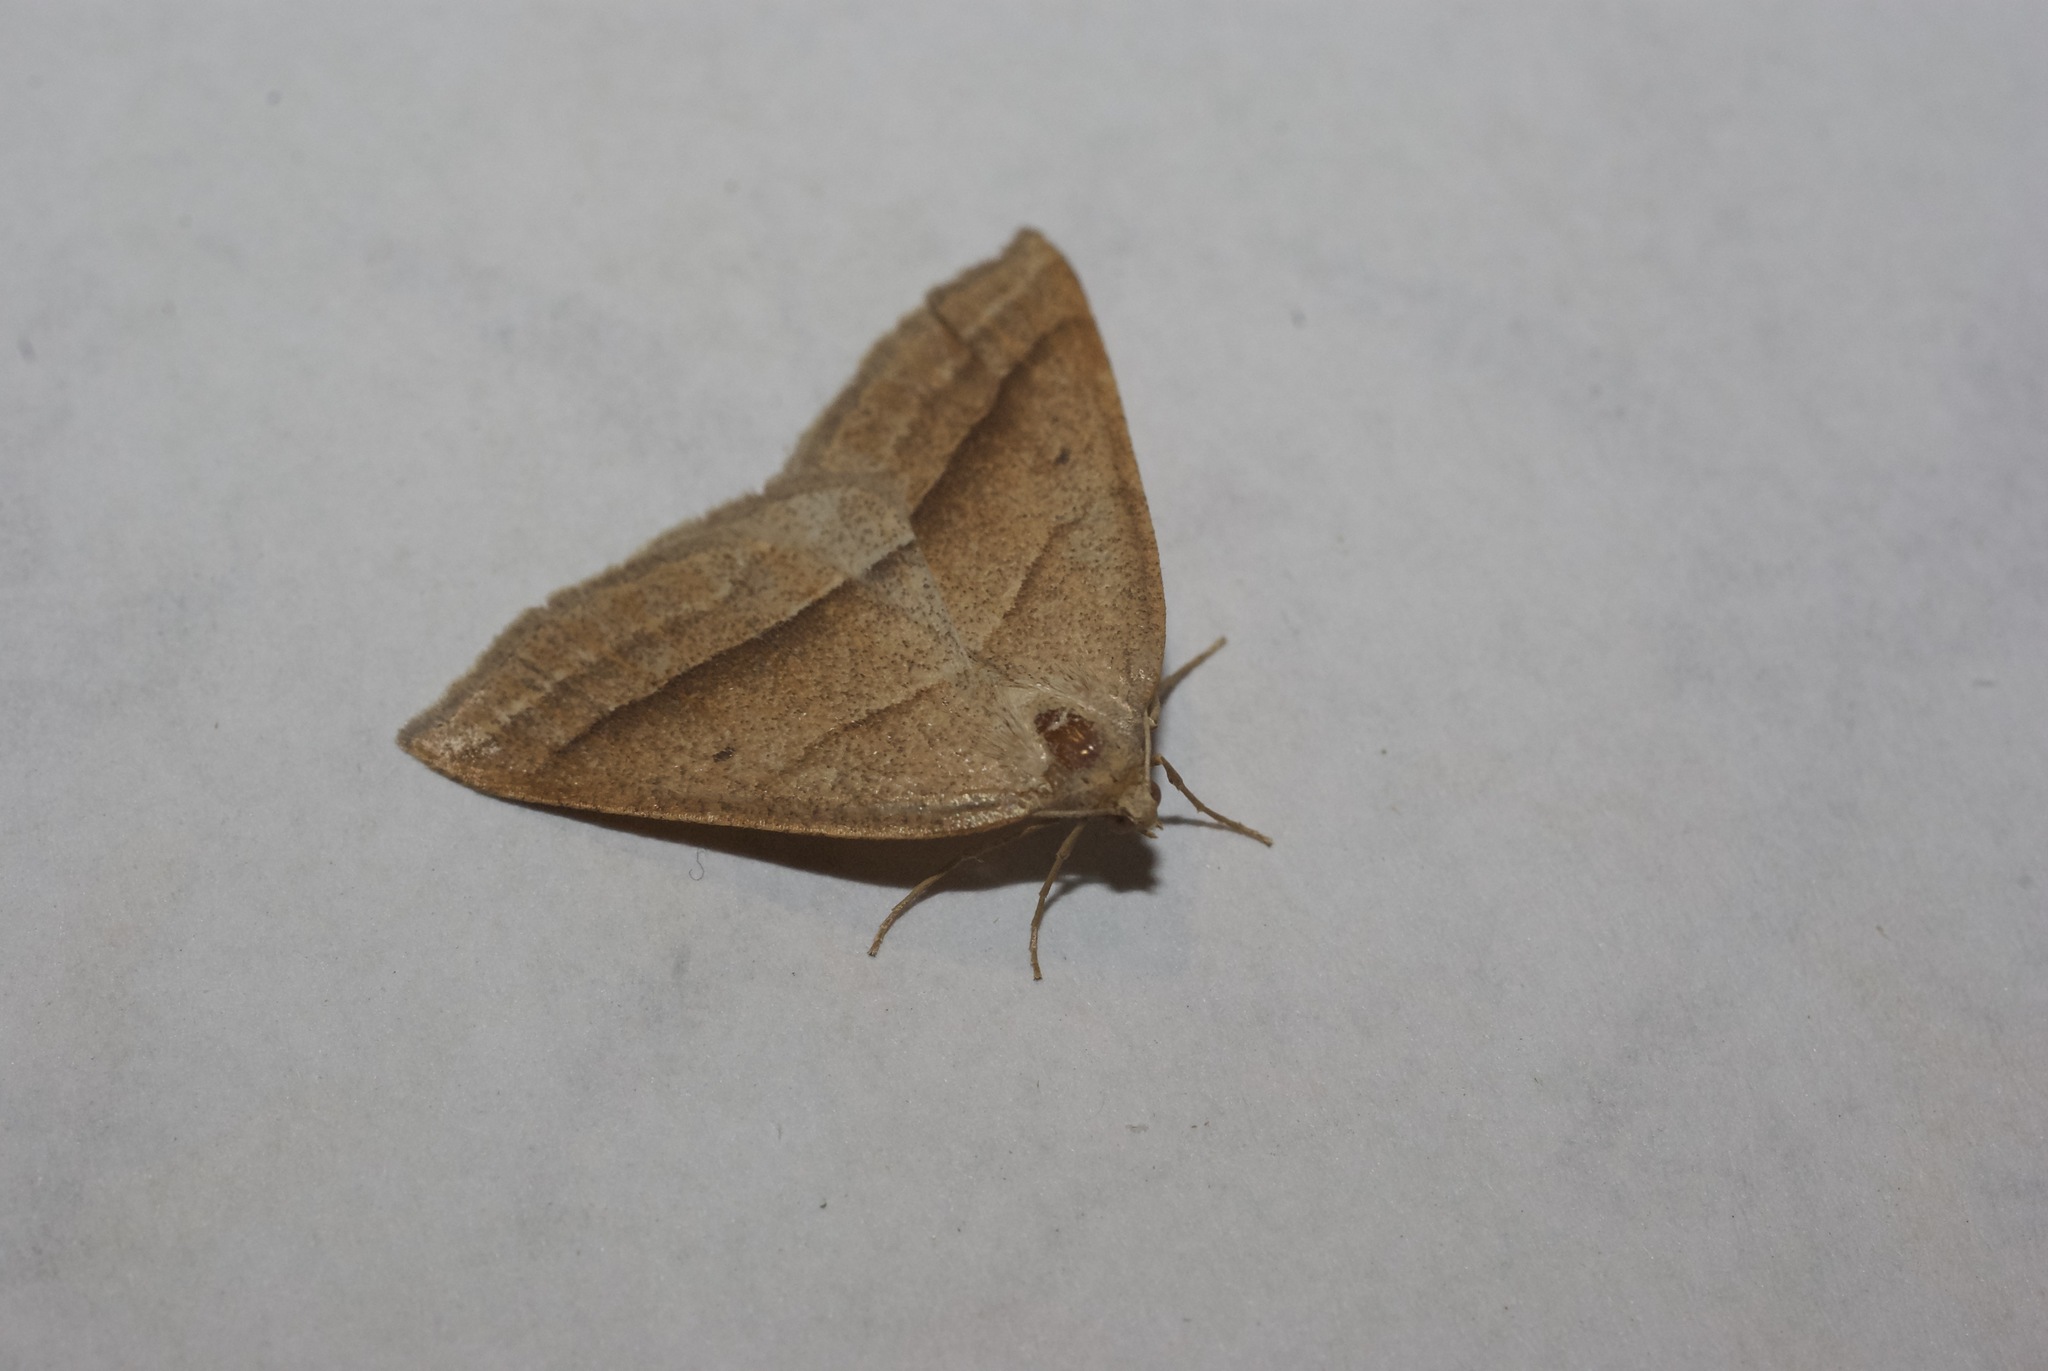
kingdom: Animalia
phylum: Arthropoda
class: Insecta
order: Lepidoptera
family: Pterophoridae
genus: Pterophorus
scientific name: Pterophorus Petrophora chlorosata
